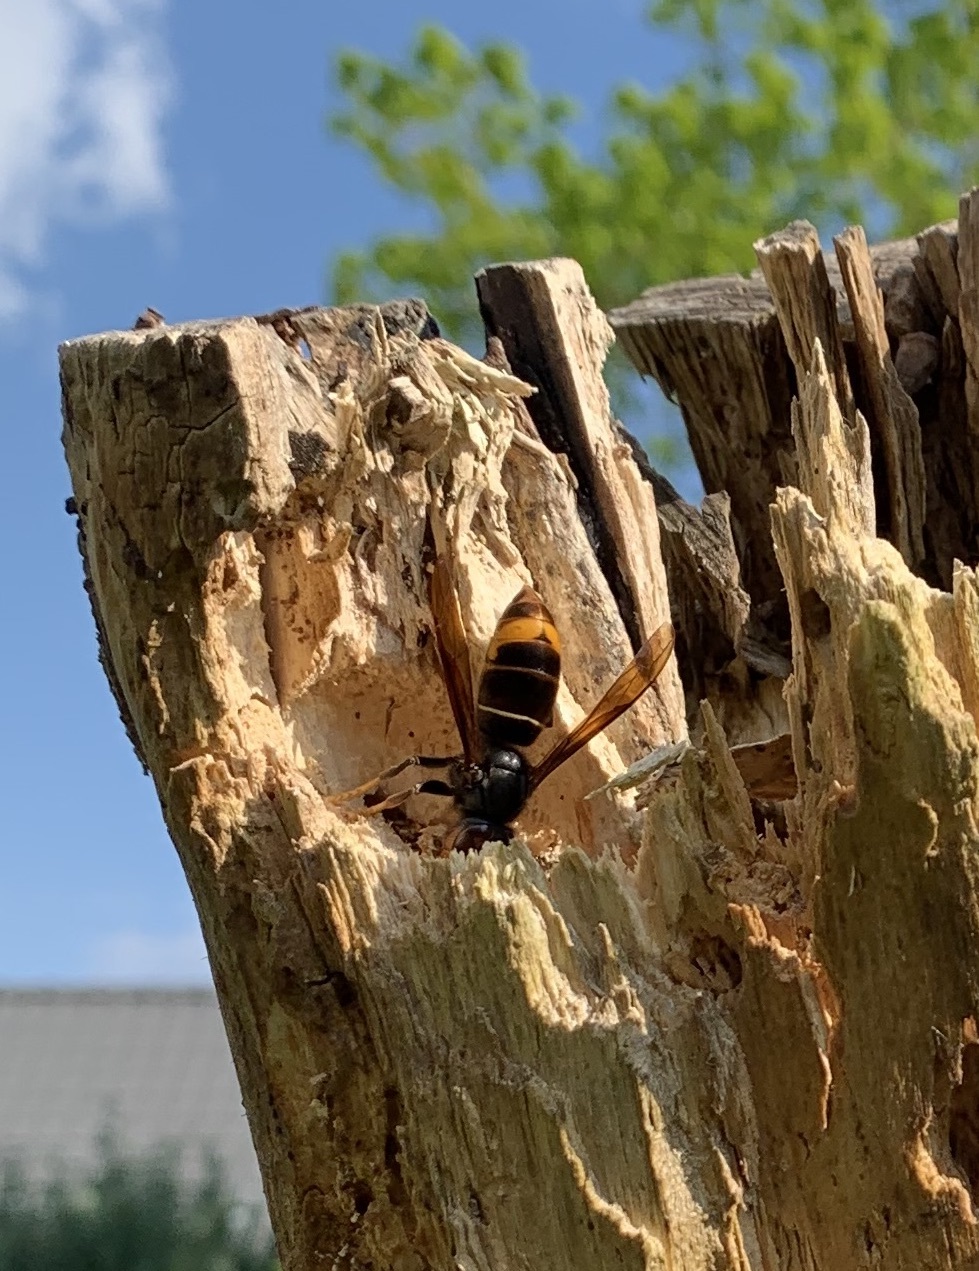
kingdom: Animalia
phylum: Arthropoda
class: Insecta
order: Hymenoptera
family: Vespidae
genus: Vespa
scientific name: Vespa velutina
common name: Asian hornet
